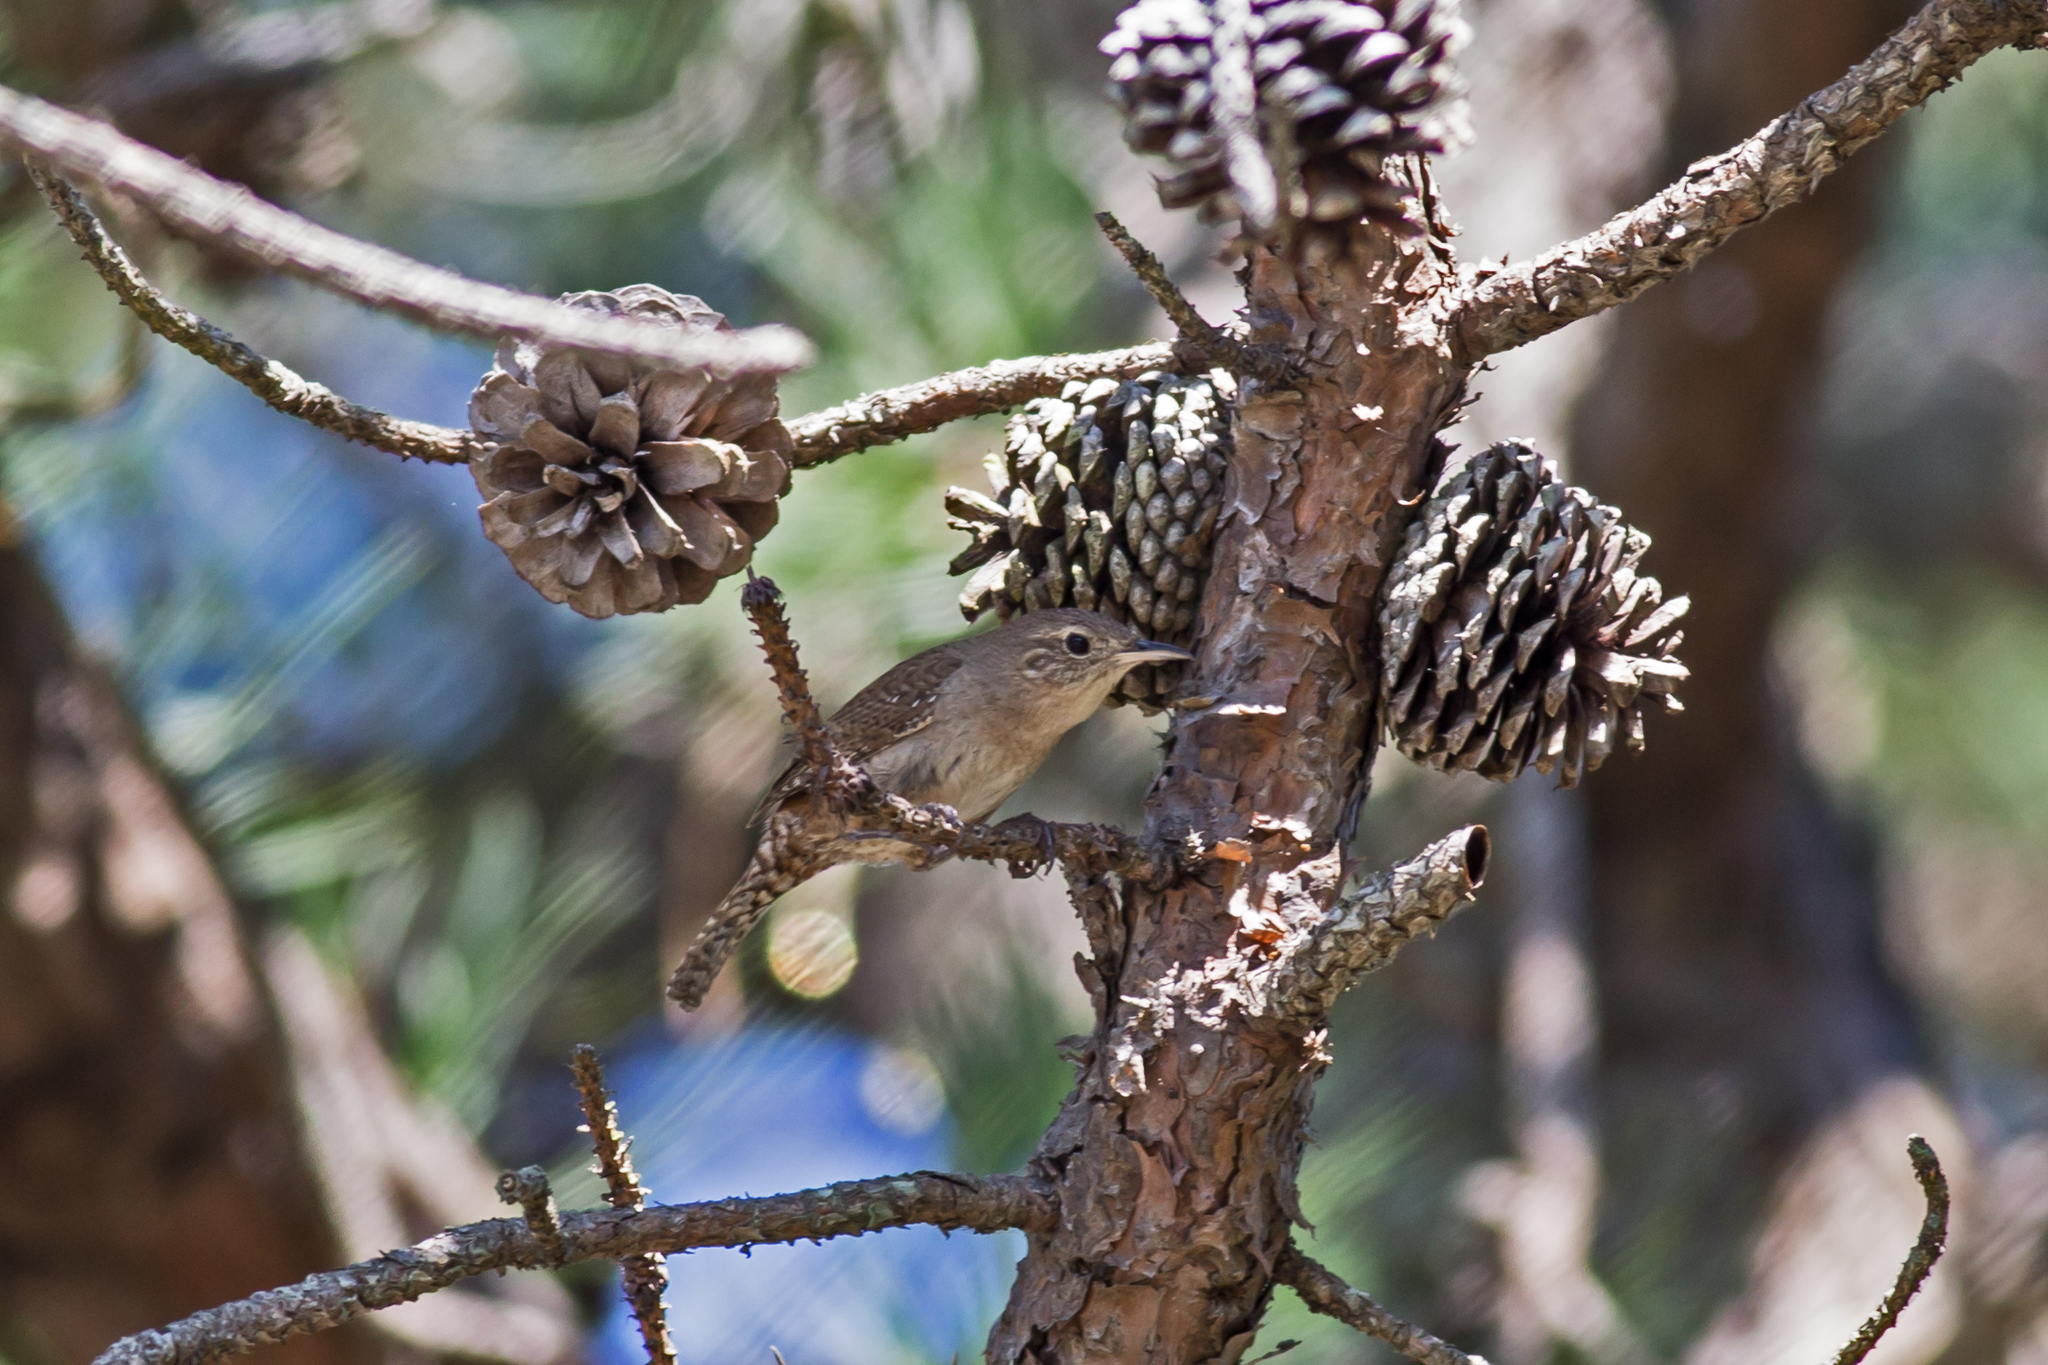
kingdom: Animalia
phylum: Chordata
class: Aves
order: Passeriformes
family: Troglodytidae
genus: Troglodytes
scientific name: Troglodytes aedon
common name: House wren
